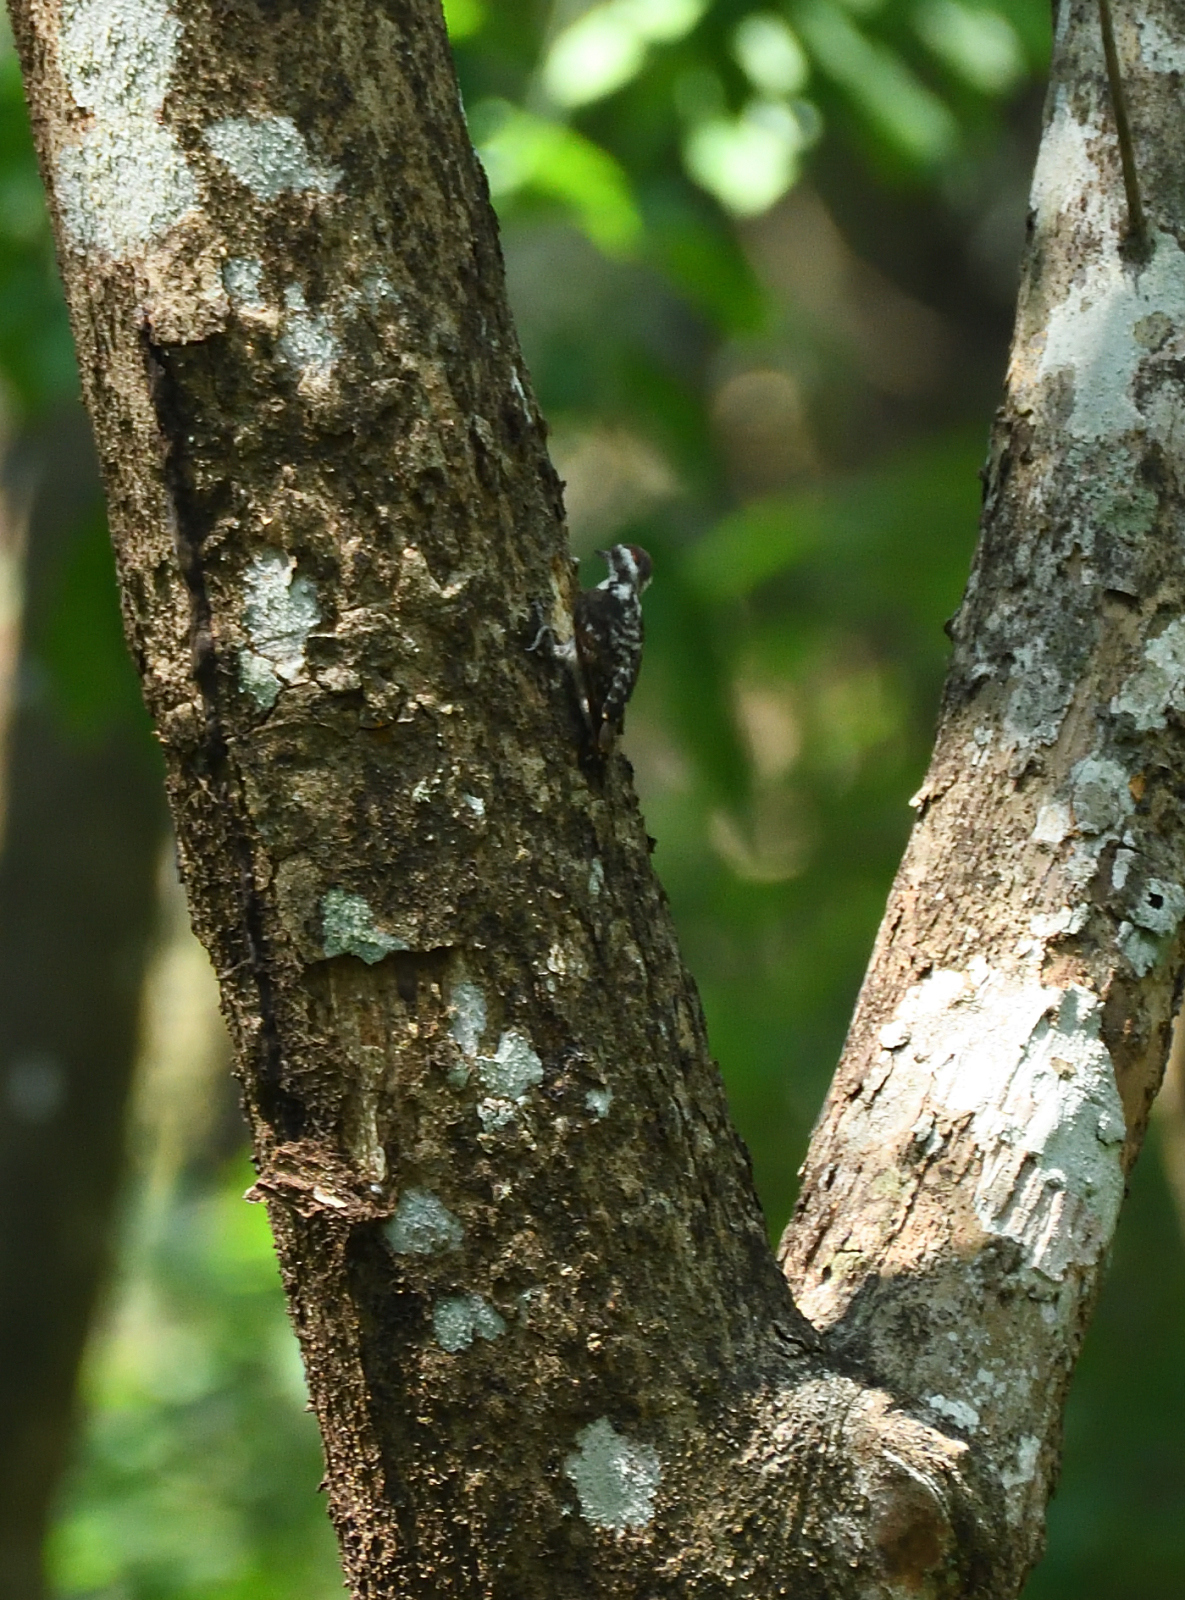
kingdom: Animalia
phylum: Chordata
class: Aves
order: Piciformes
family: Picidae
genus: Yungipicus
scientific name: Yungipicus nanus
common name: Brown-capped pygmy woodpecker
